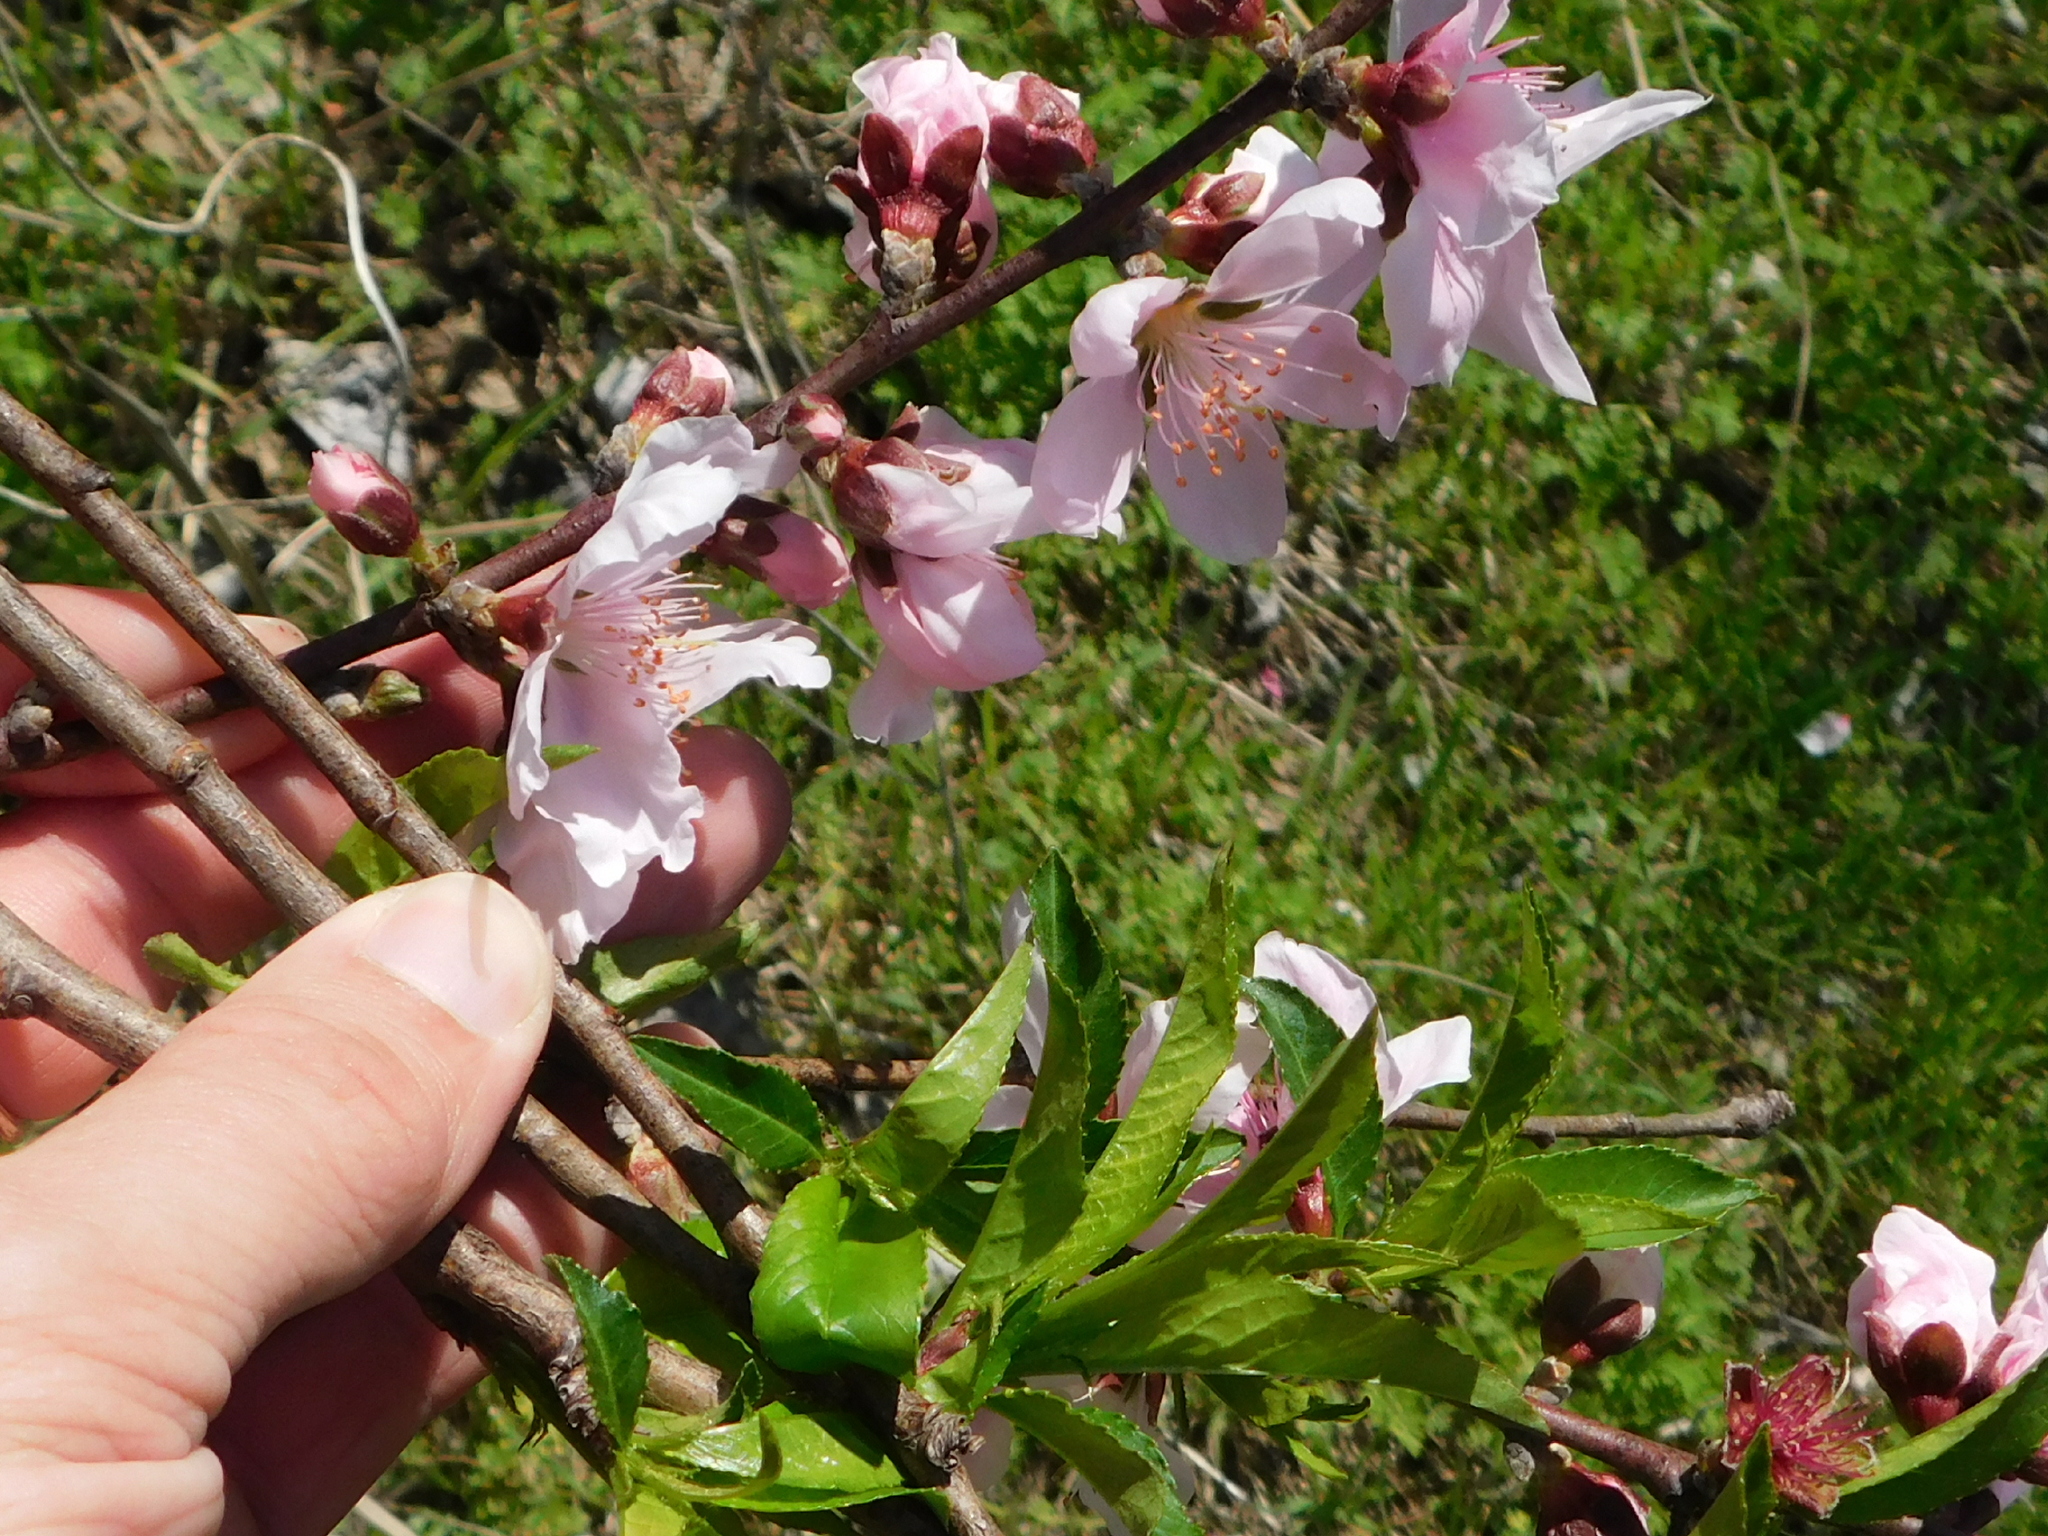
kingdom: Plantae
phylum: Tracheophyta
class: Magnoliopsida
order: Rosales
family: Rosaceae
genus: Prunus
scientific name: Prunus persica
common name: Peach
